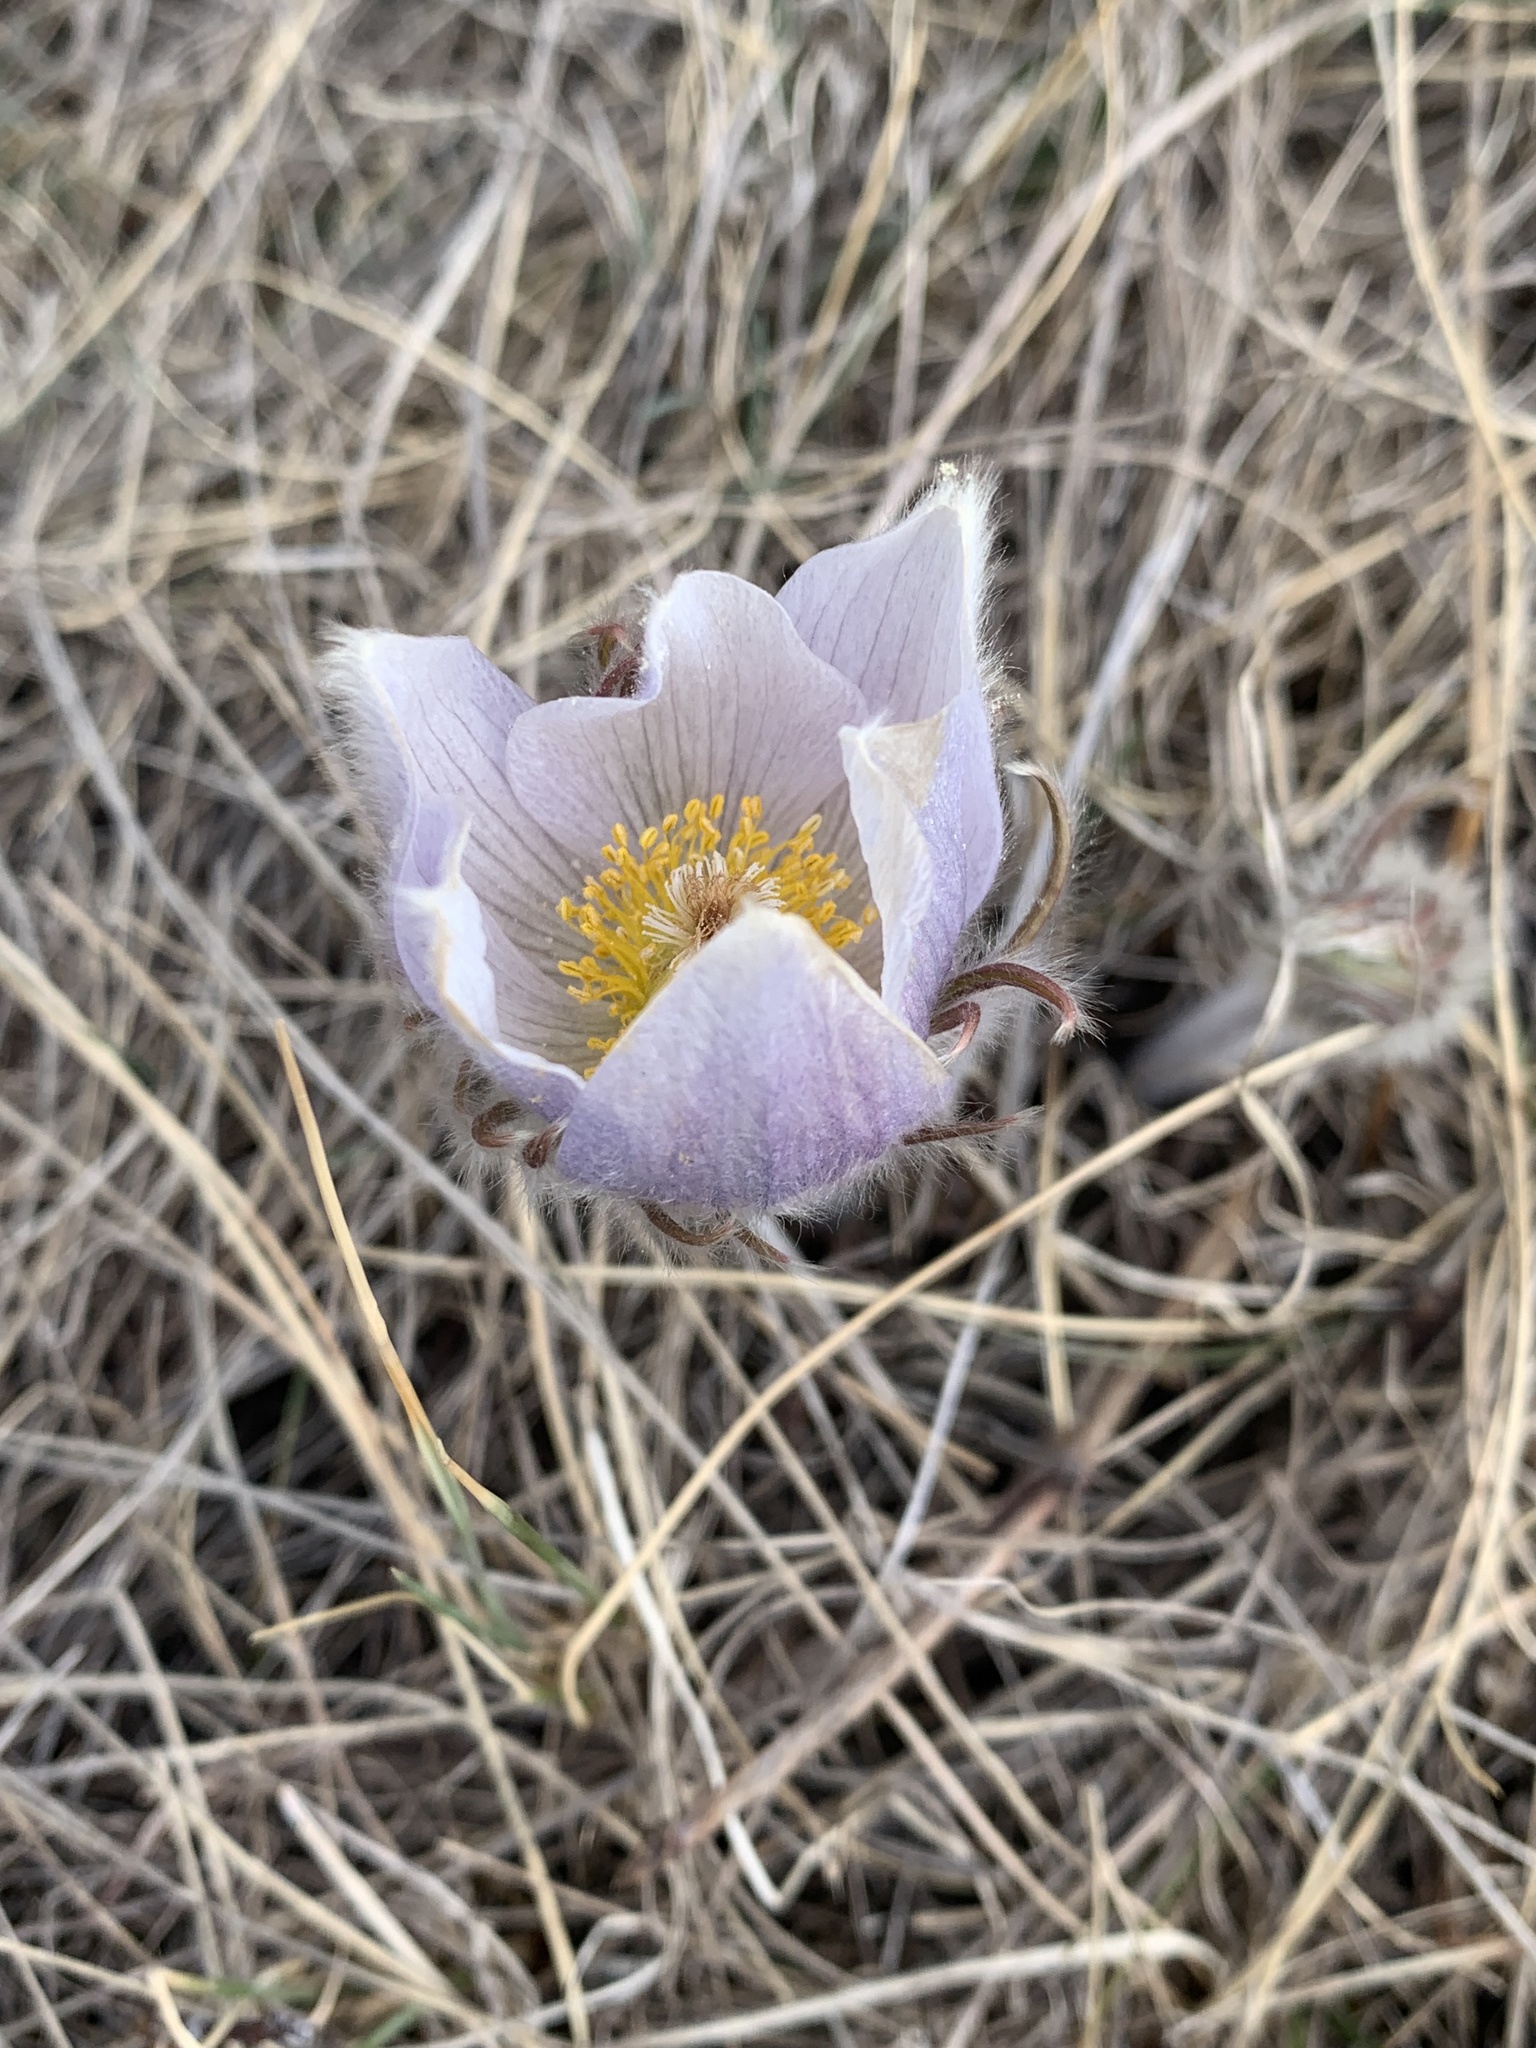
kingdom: Plantae
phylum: Tracheophyta
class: Magnoliopsida
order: Ranunculales
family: Ranunculaceae
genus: Pulsatilla
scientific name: Pulsatilla nuttalliana
